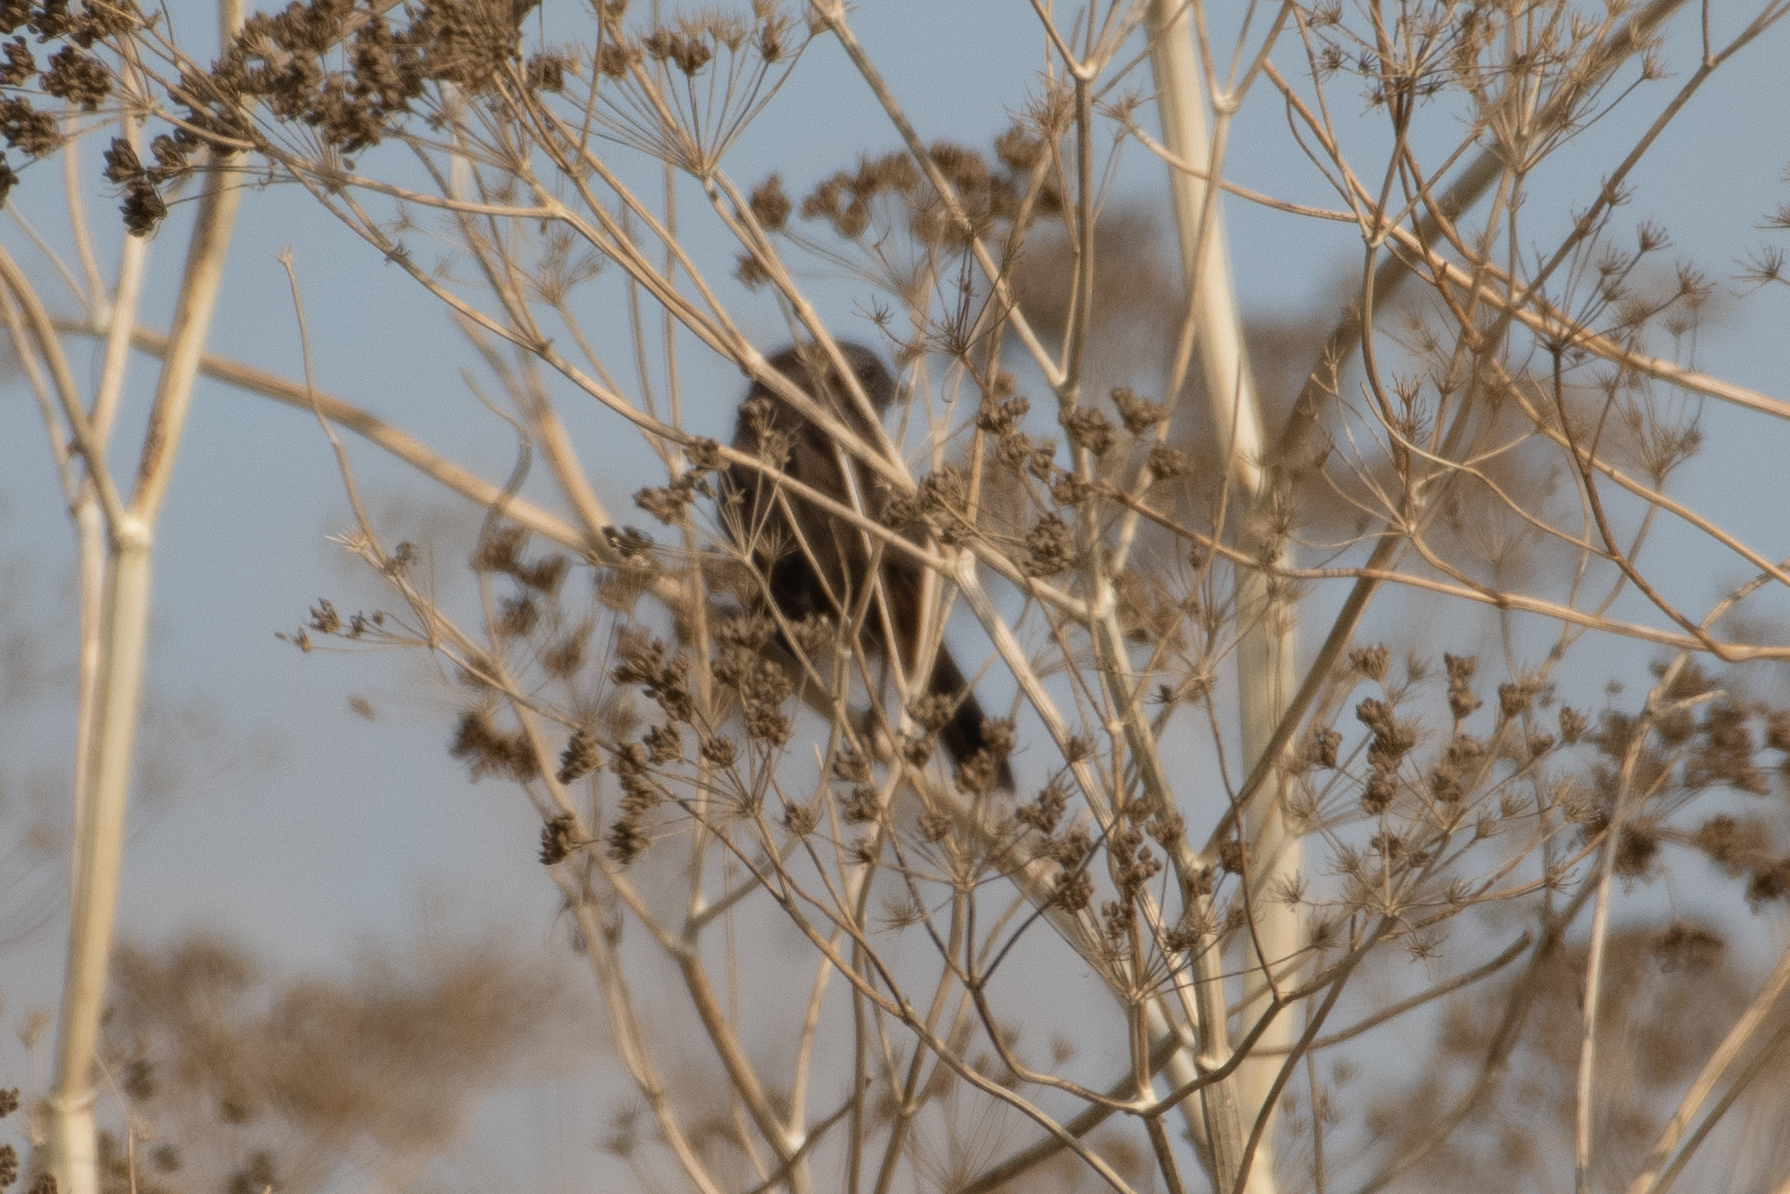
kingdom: Animalia
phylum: Chordata
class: Aves
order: Passeriformes
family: Passerellidae
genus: Melospiza
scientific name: Melospiza melodia
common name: Song sparrow
